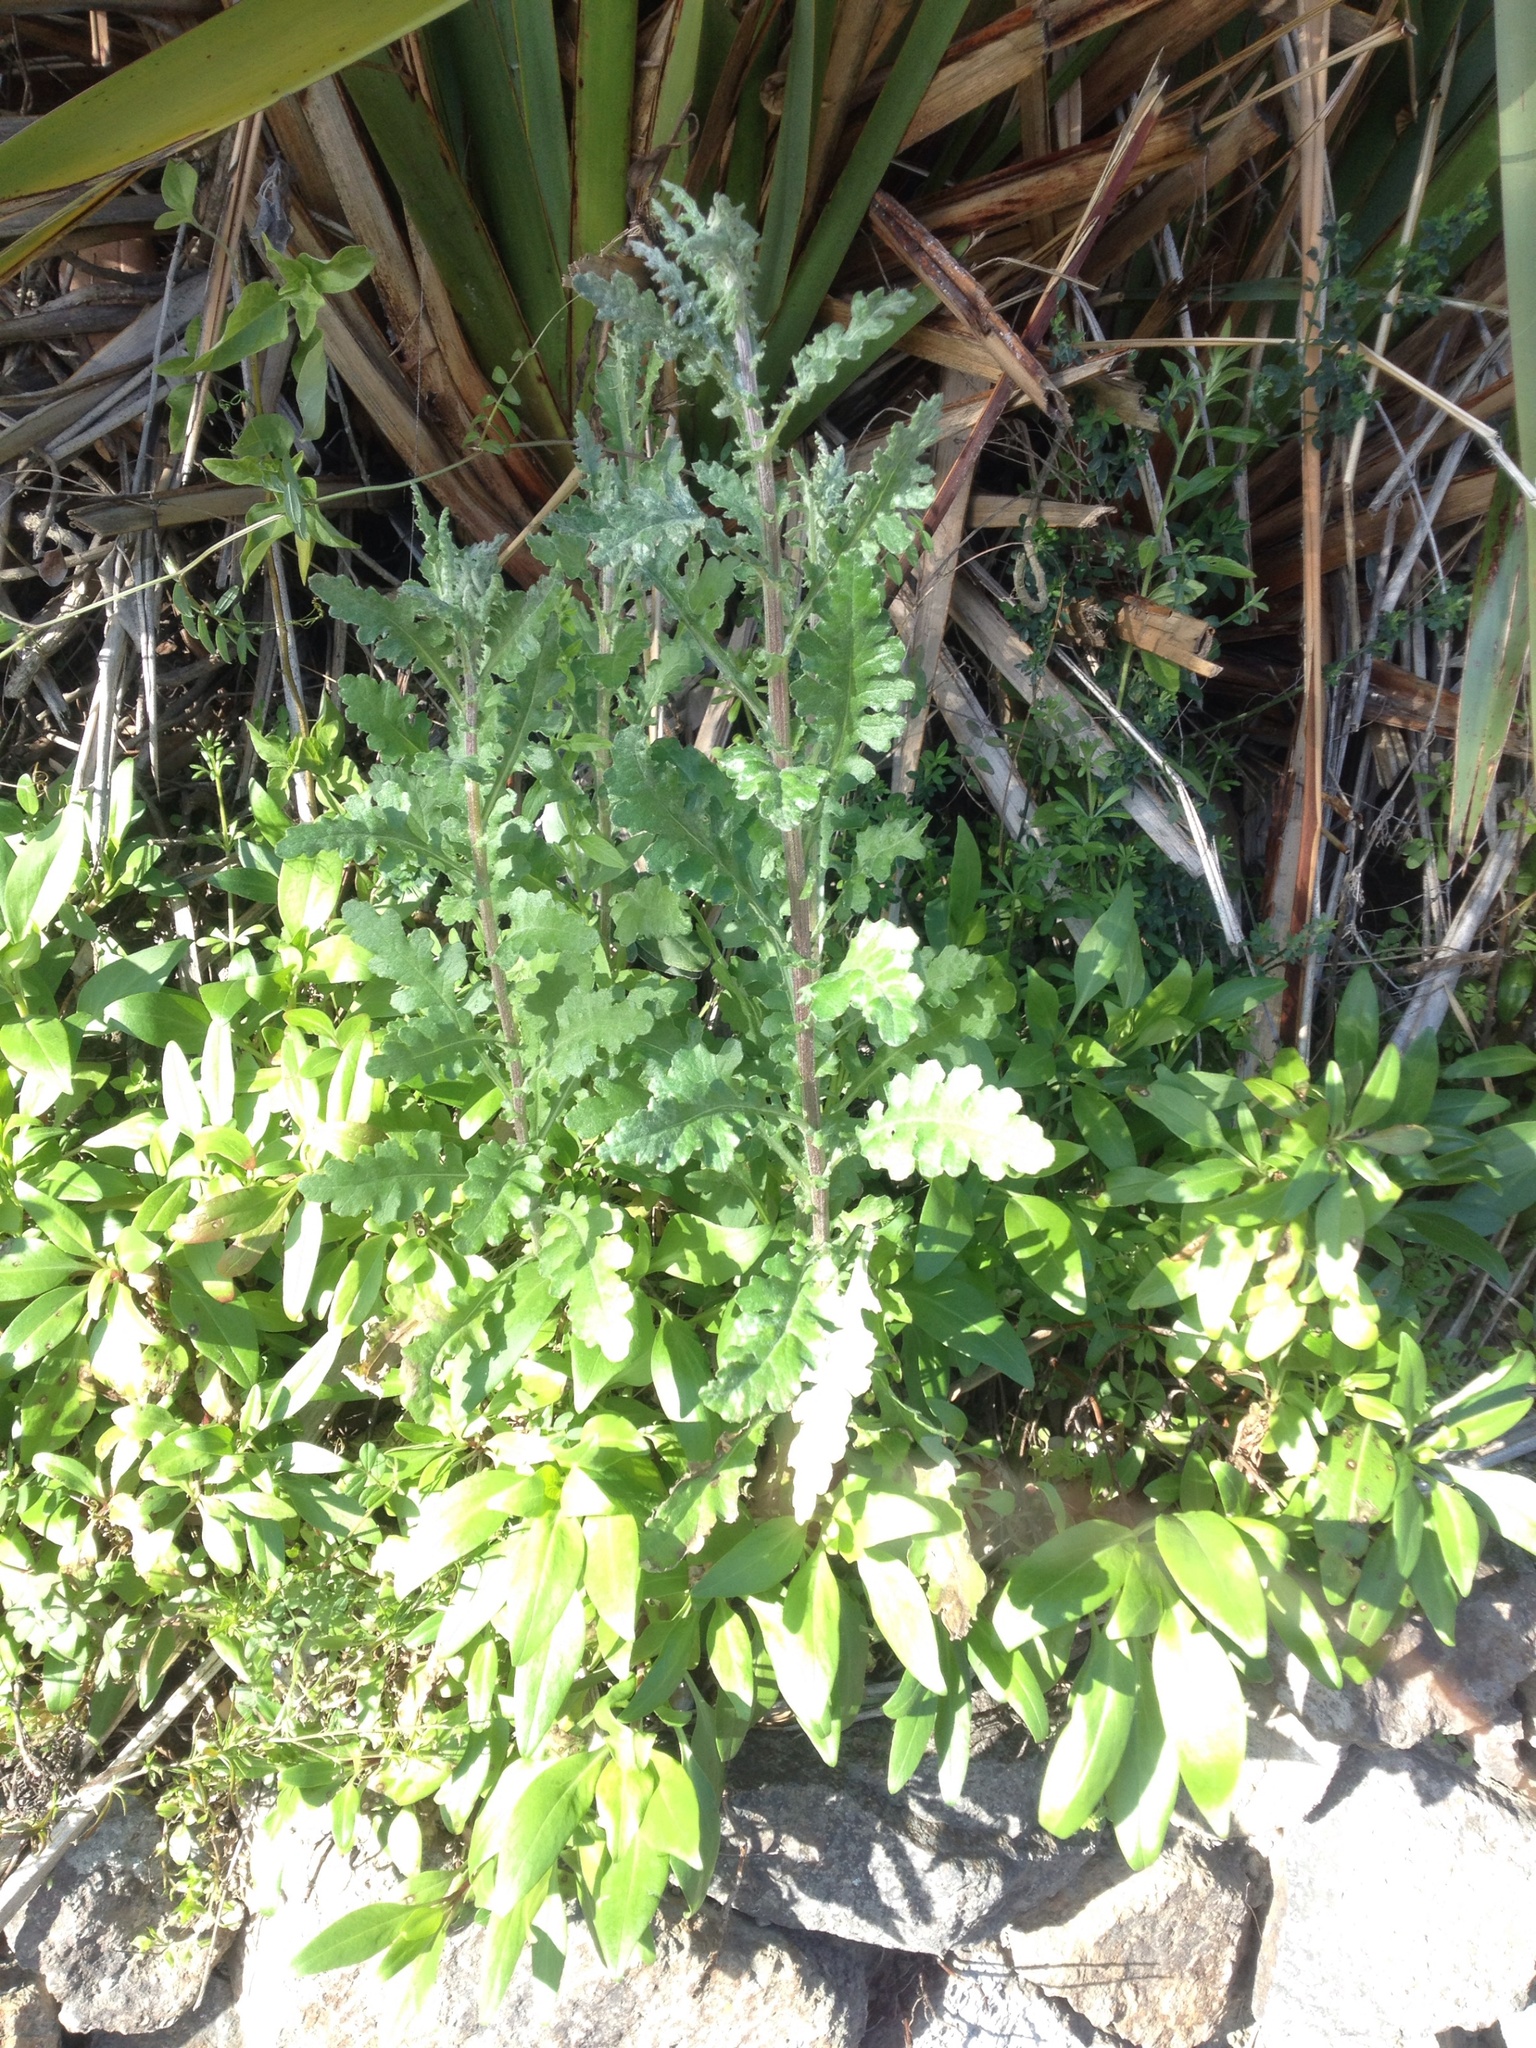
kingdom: Plantae
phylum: Tracheophyta
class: Magnoliopsida
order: Asterales
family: Asteraceae
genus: Senecio
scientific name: Senecio glomeratus
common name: Cutleaf burnweed
